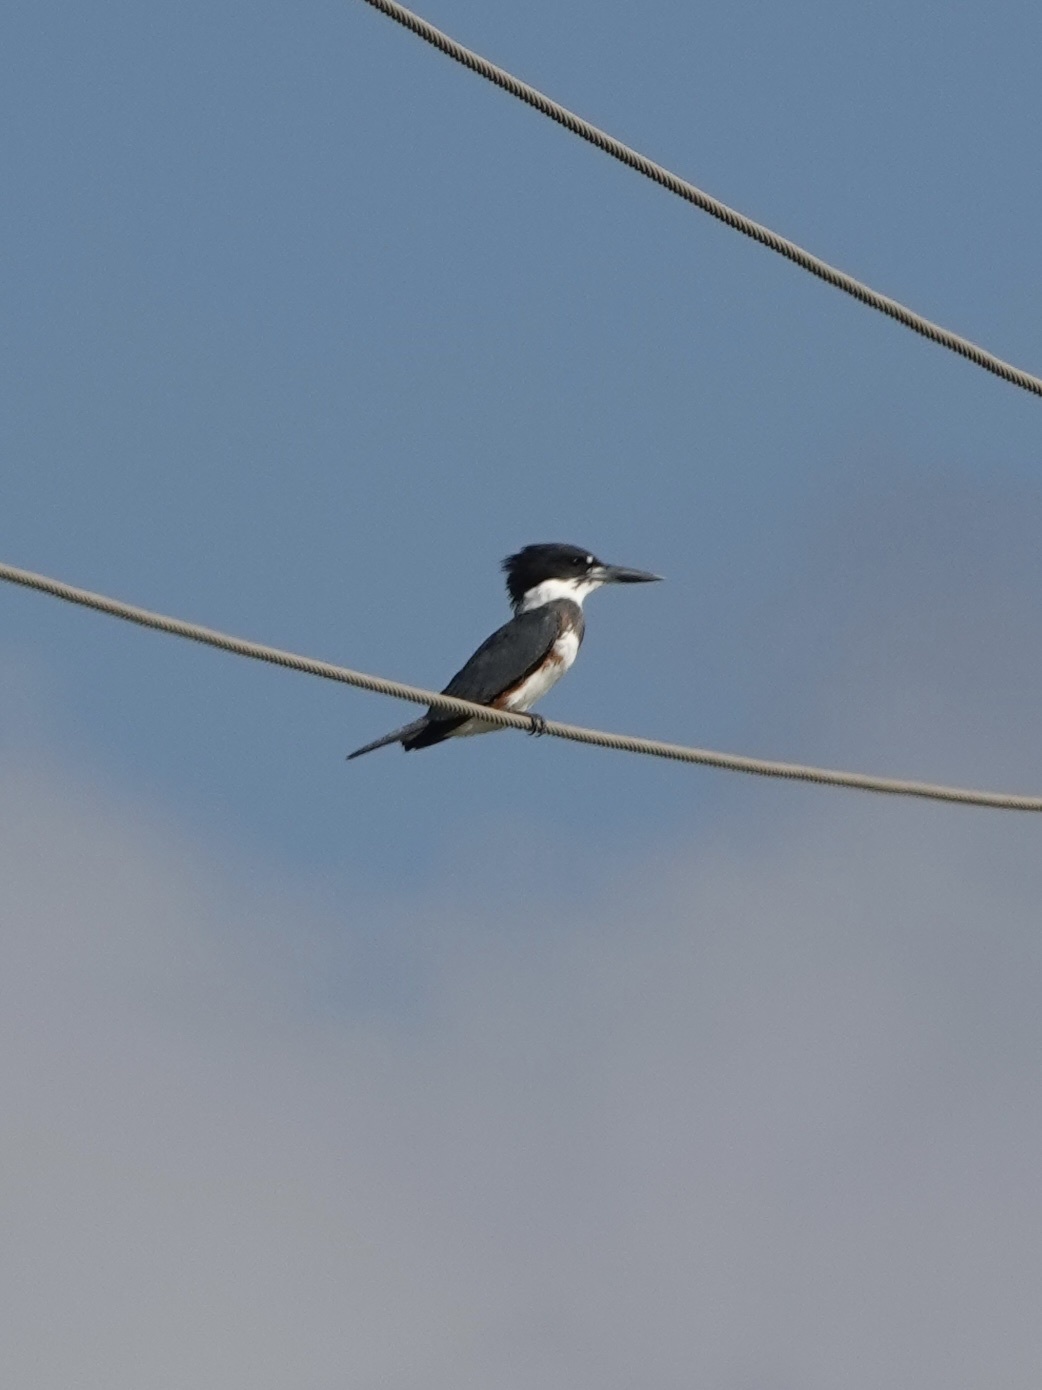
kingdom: Animalia
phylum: Chordata
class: Aves
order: Coraciiformes
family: Alcedinidae
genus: Megaceryle
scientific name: Megaceryle alcyon
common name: Belted kingfisher
